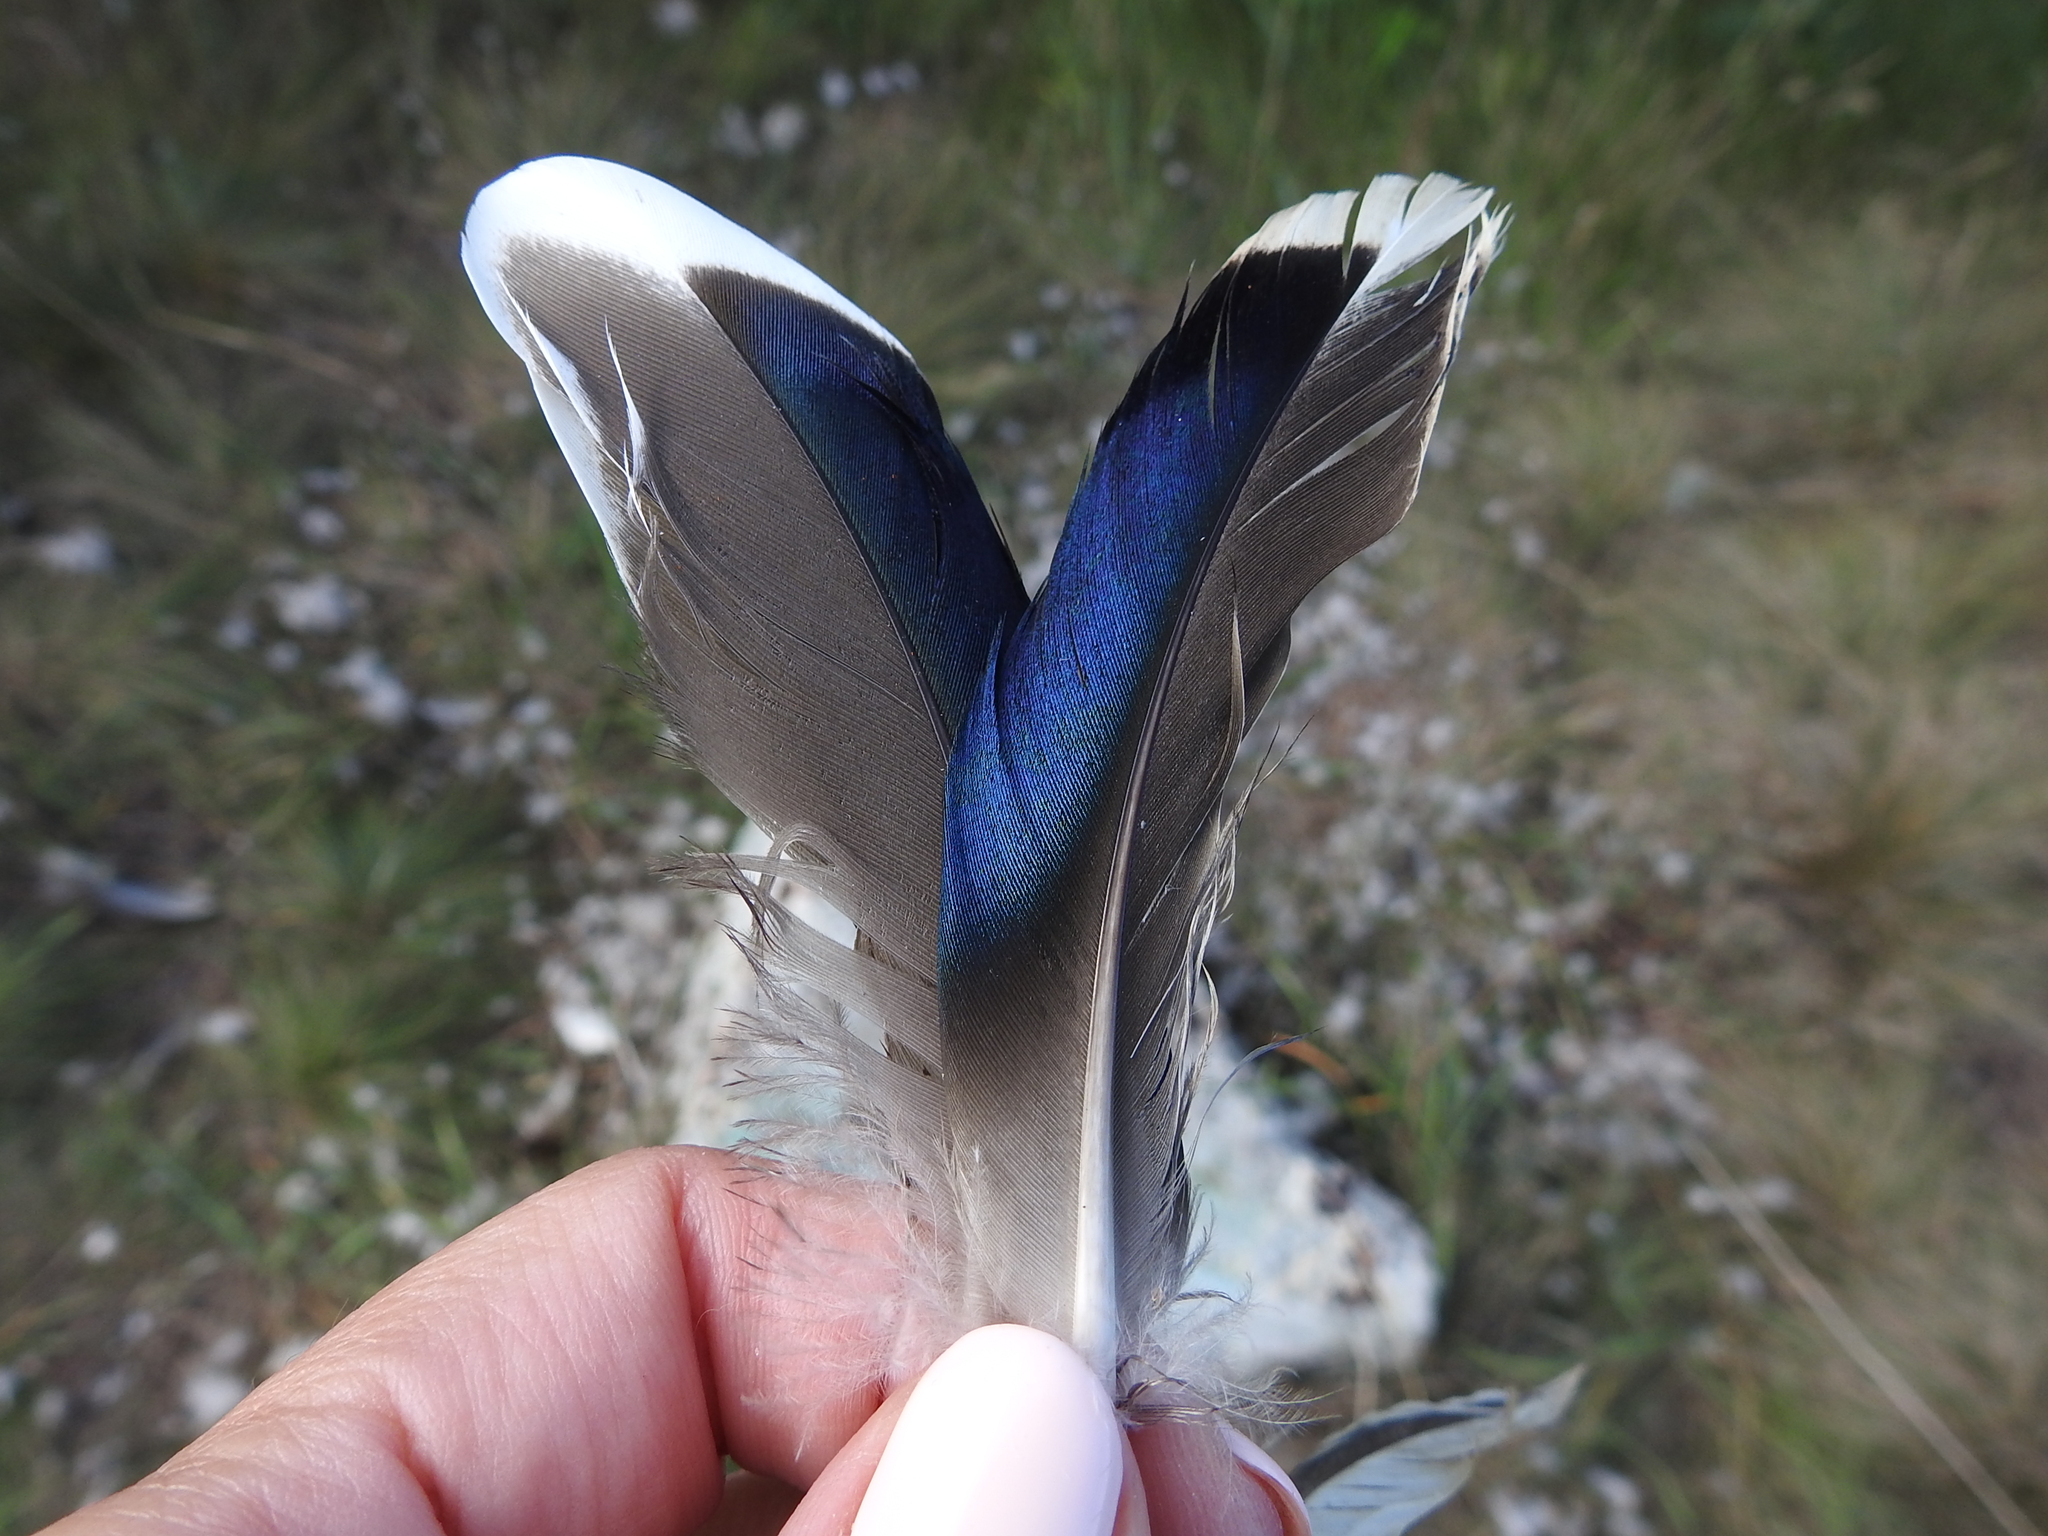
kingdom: Animalia
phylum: Chordata
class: Aves
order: Anseriformes
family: Anatidae
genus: Anas
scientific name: Anas platyrhynchos
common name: Mallard
